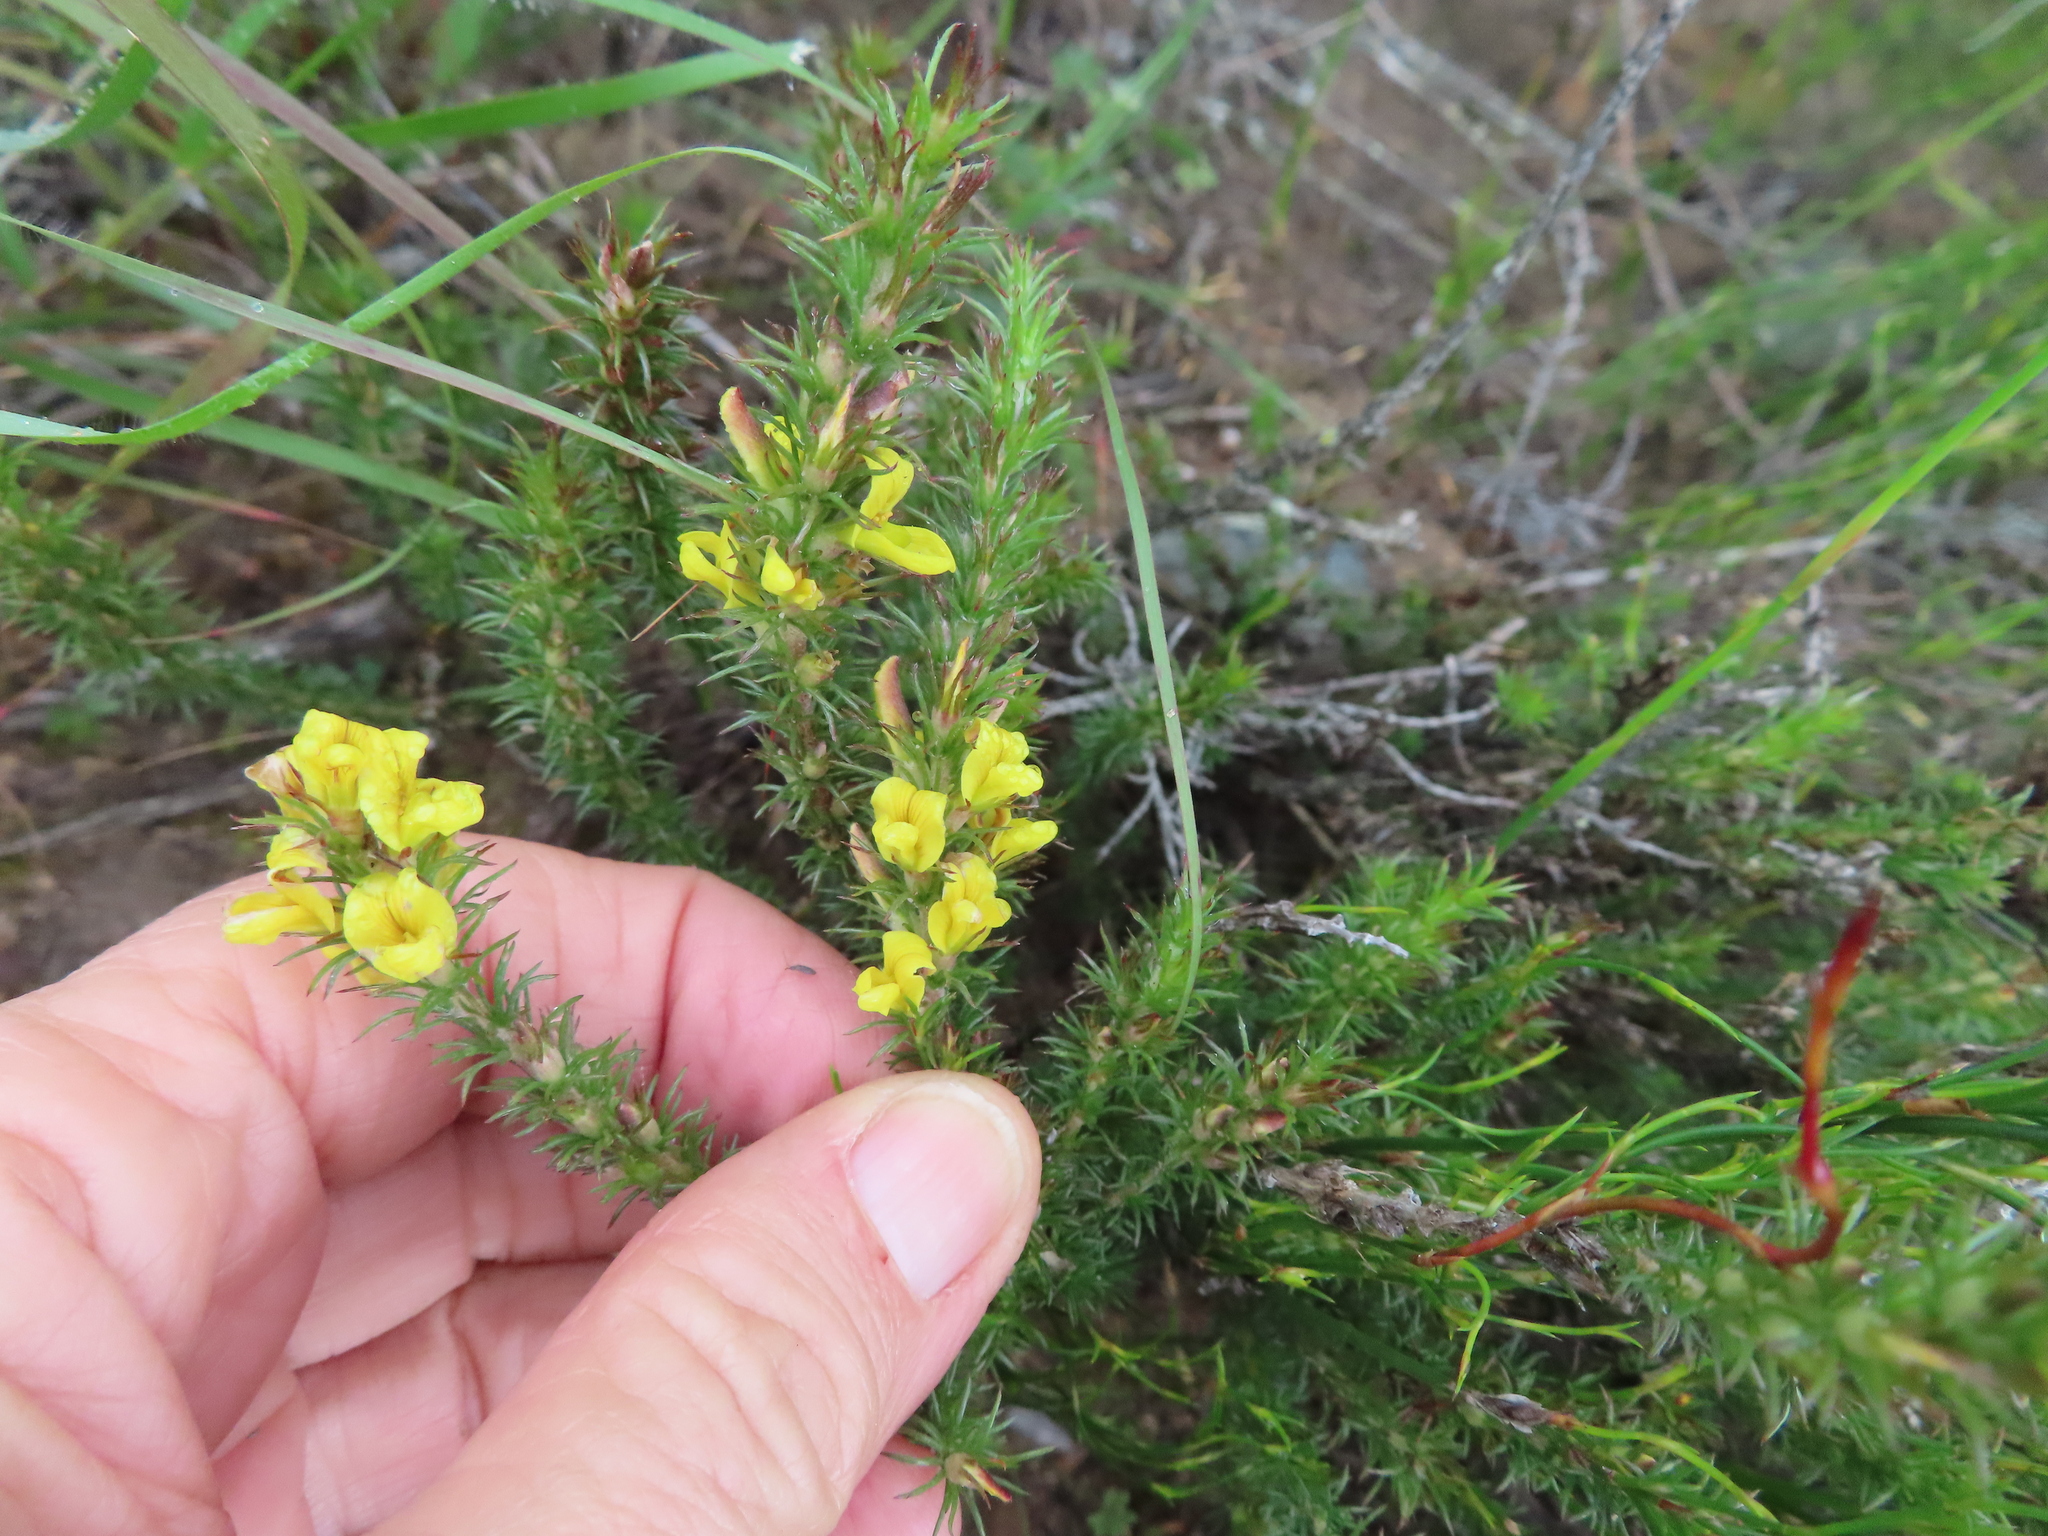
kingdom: Plantae
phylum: Tracheophyta
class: Magnoliopsida
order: Fabales
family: Fabaceae
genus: Aspalathus
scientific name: Aspalathus parviflora
